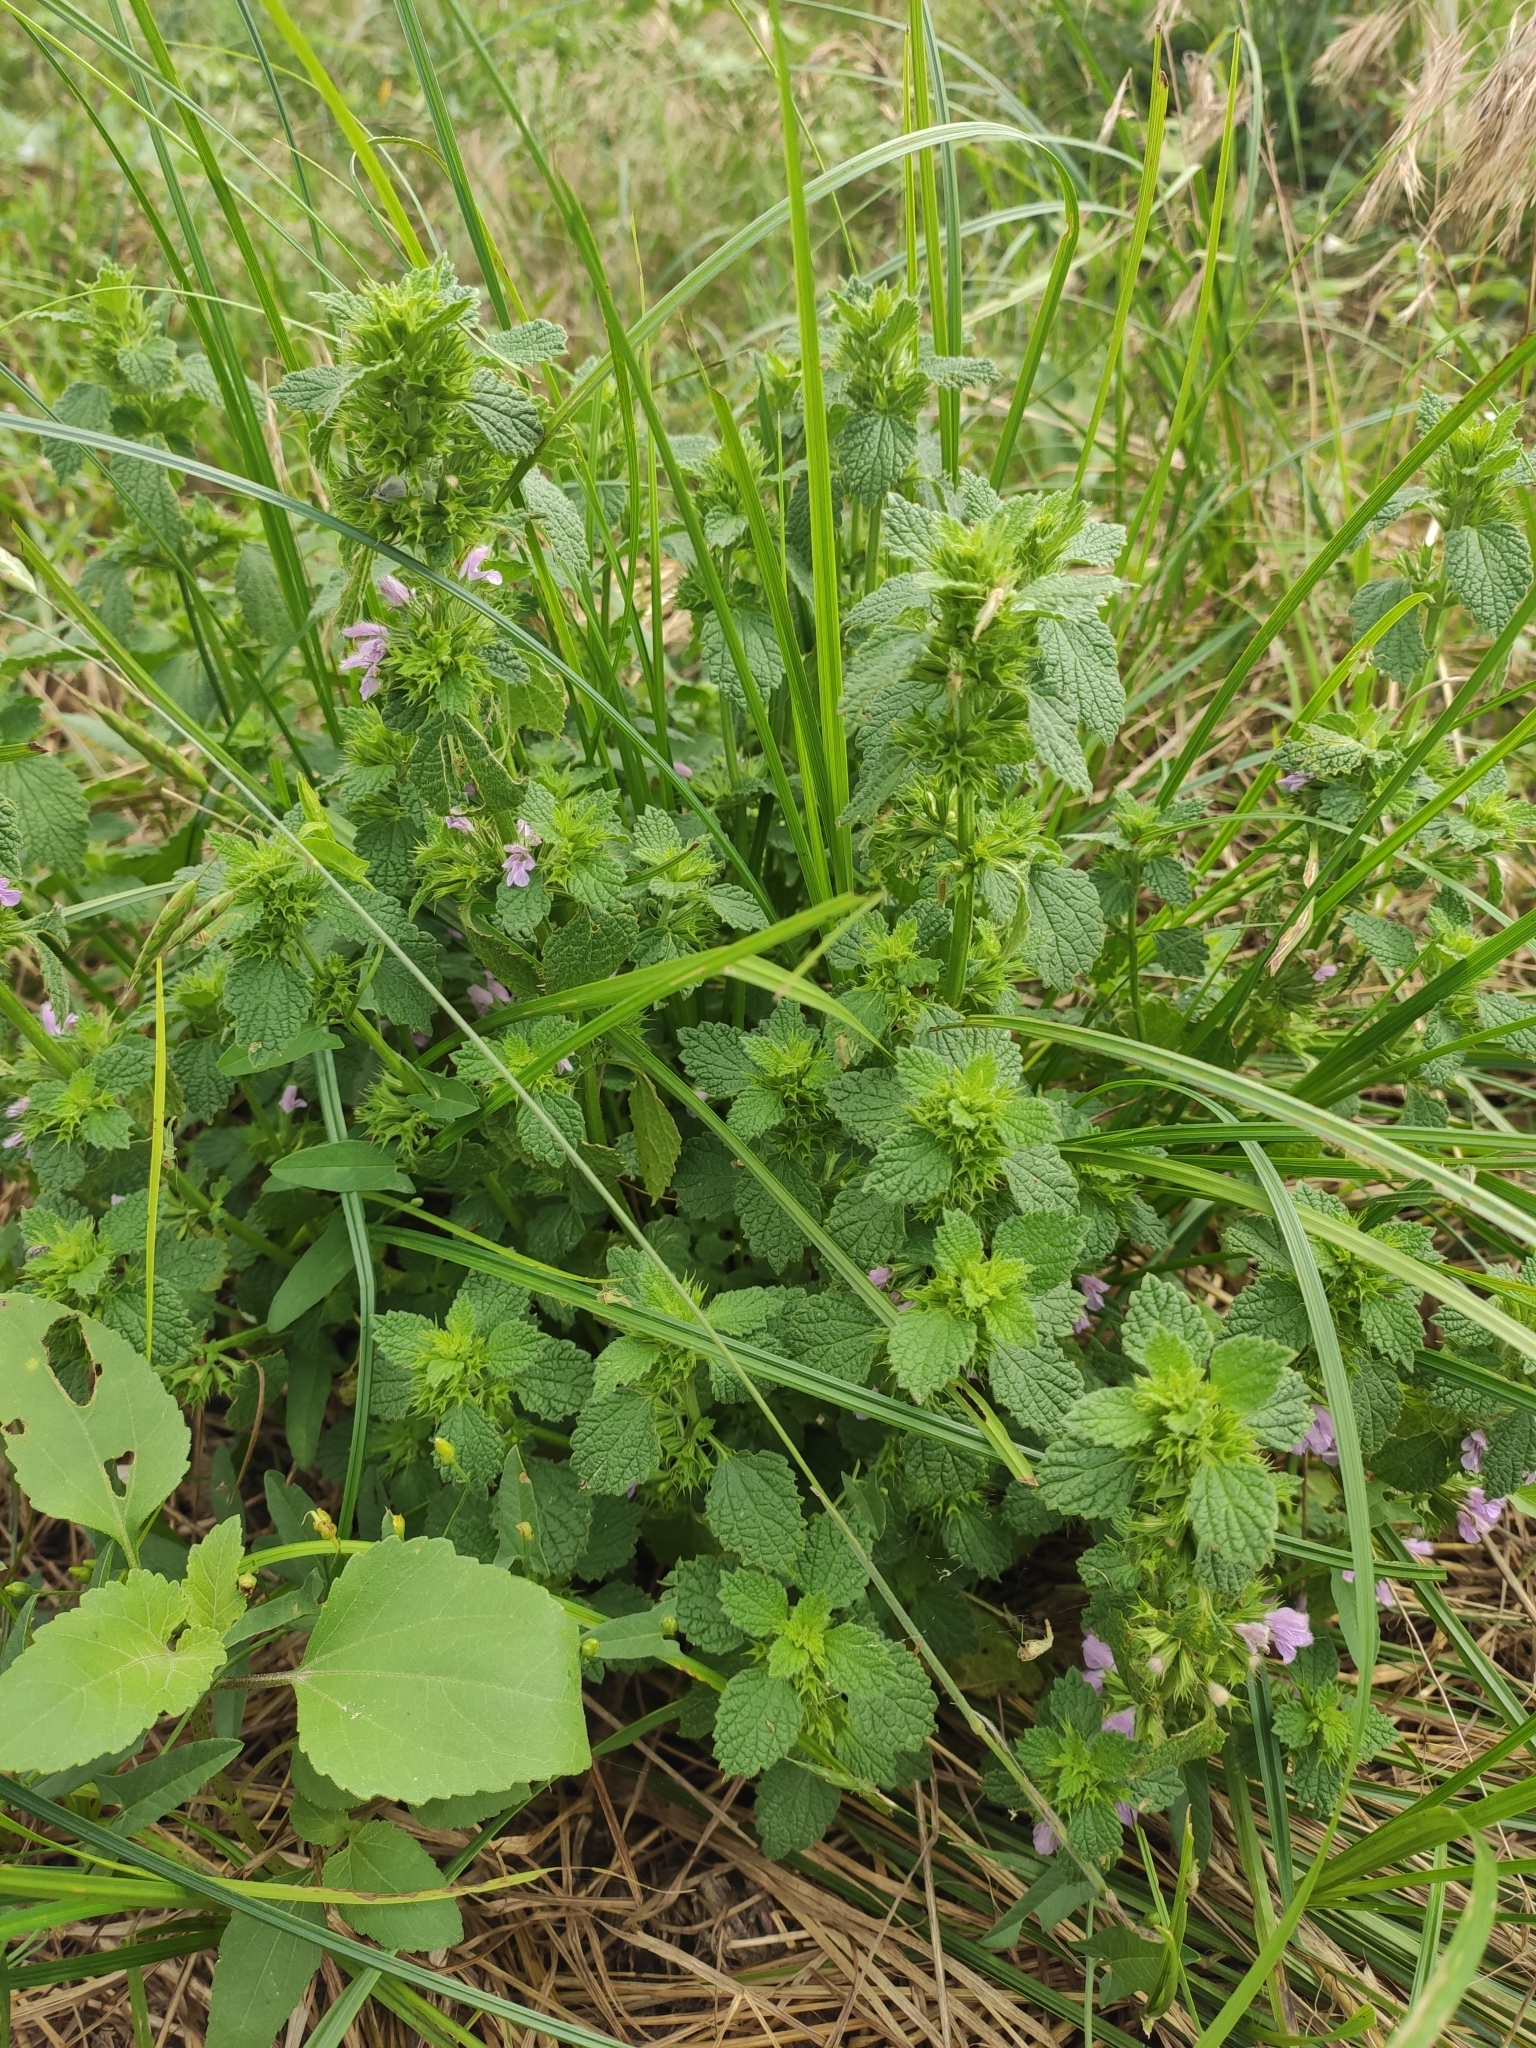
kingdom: Plantae
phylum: Tracheophyta
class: Magnoliopsida
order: Lamiales
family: Lamiaceae
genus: Ballota
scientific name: Ballota nigra
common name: Black horehound
